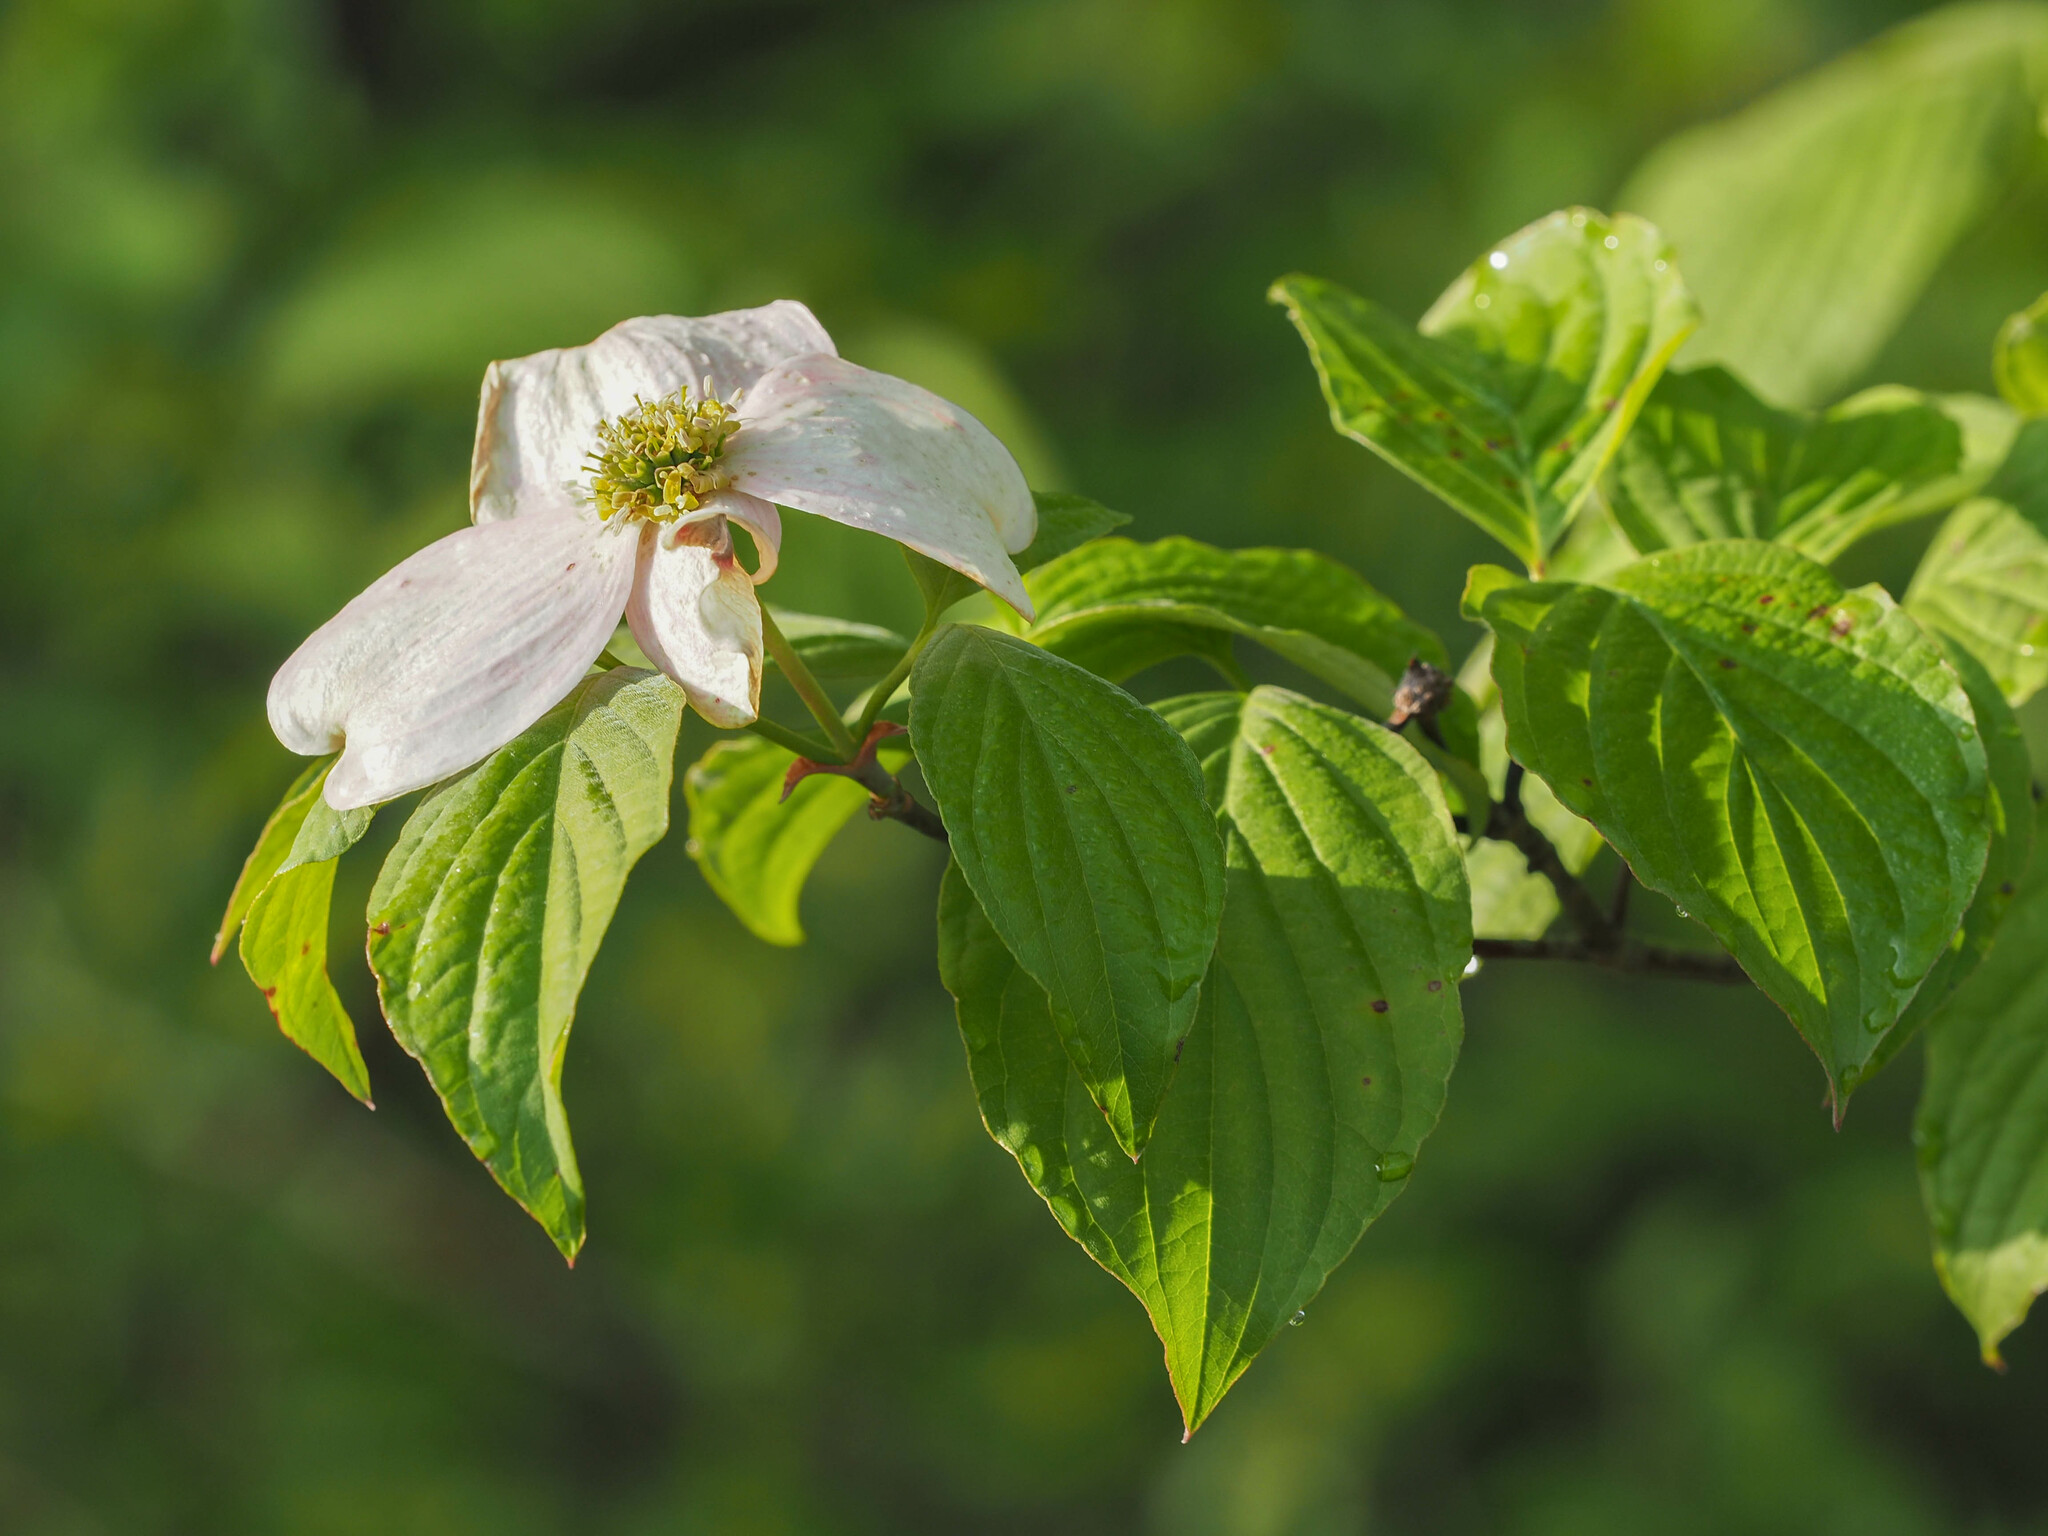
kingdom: Plantae
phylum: Tracheophyta
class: Magnoliopsida
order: Cornales
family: Cornaceae
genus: Cornus
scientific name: Cornus florida
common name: Flowering dogwood
